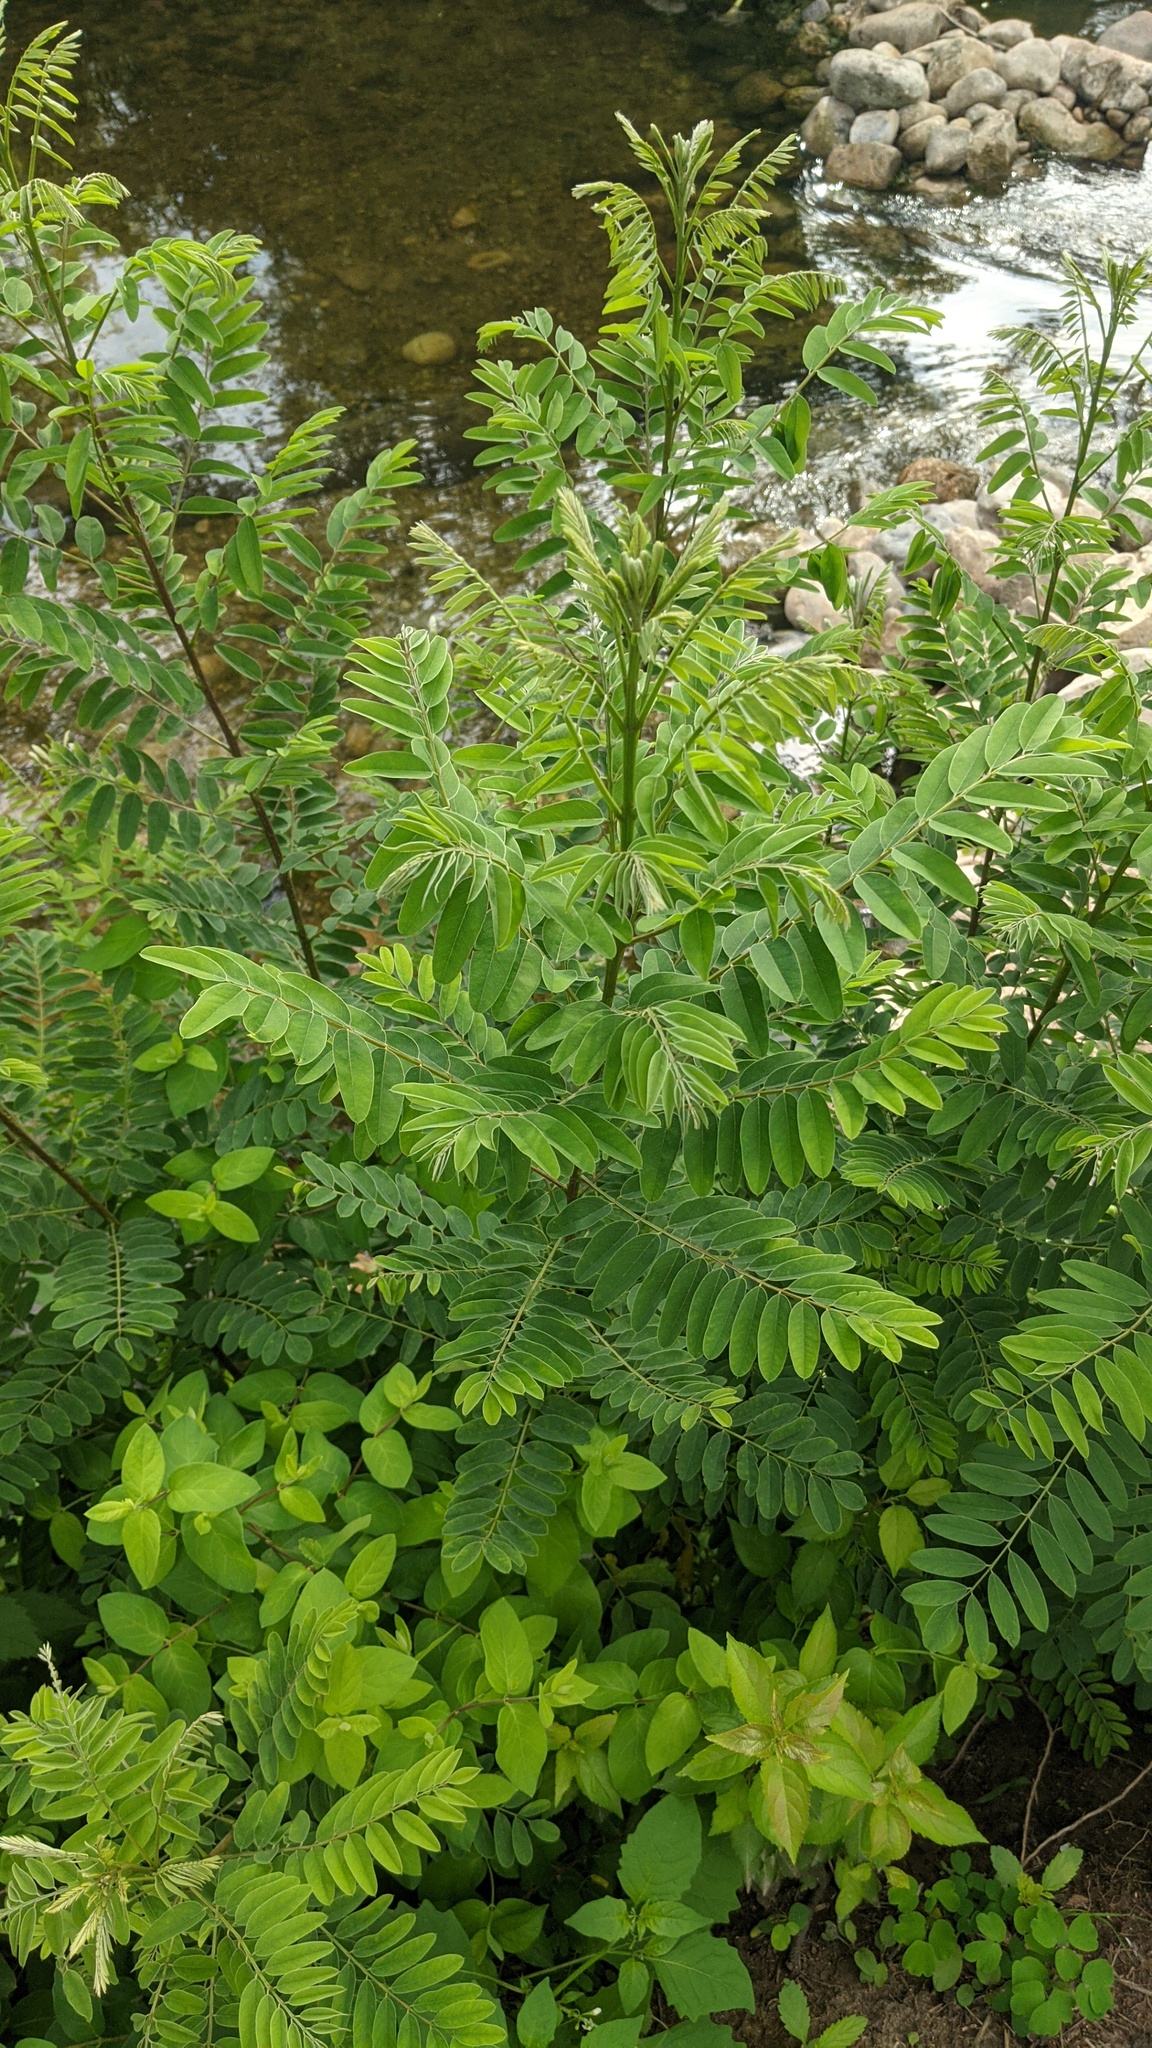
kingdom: Plantae
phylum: Tracheophyta
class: Magnoliopsida
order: Fabales
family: Fabaceae
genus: Amorpha
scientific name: Amorpha fruticosa
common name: False indigo
